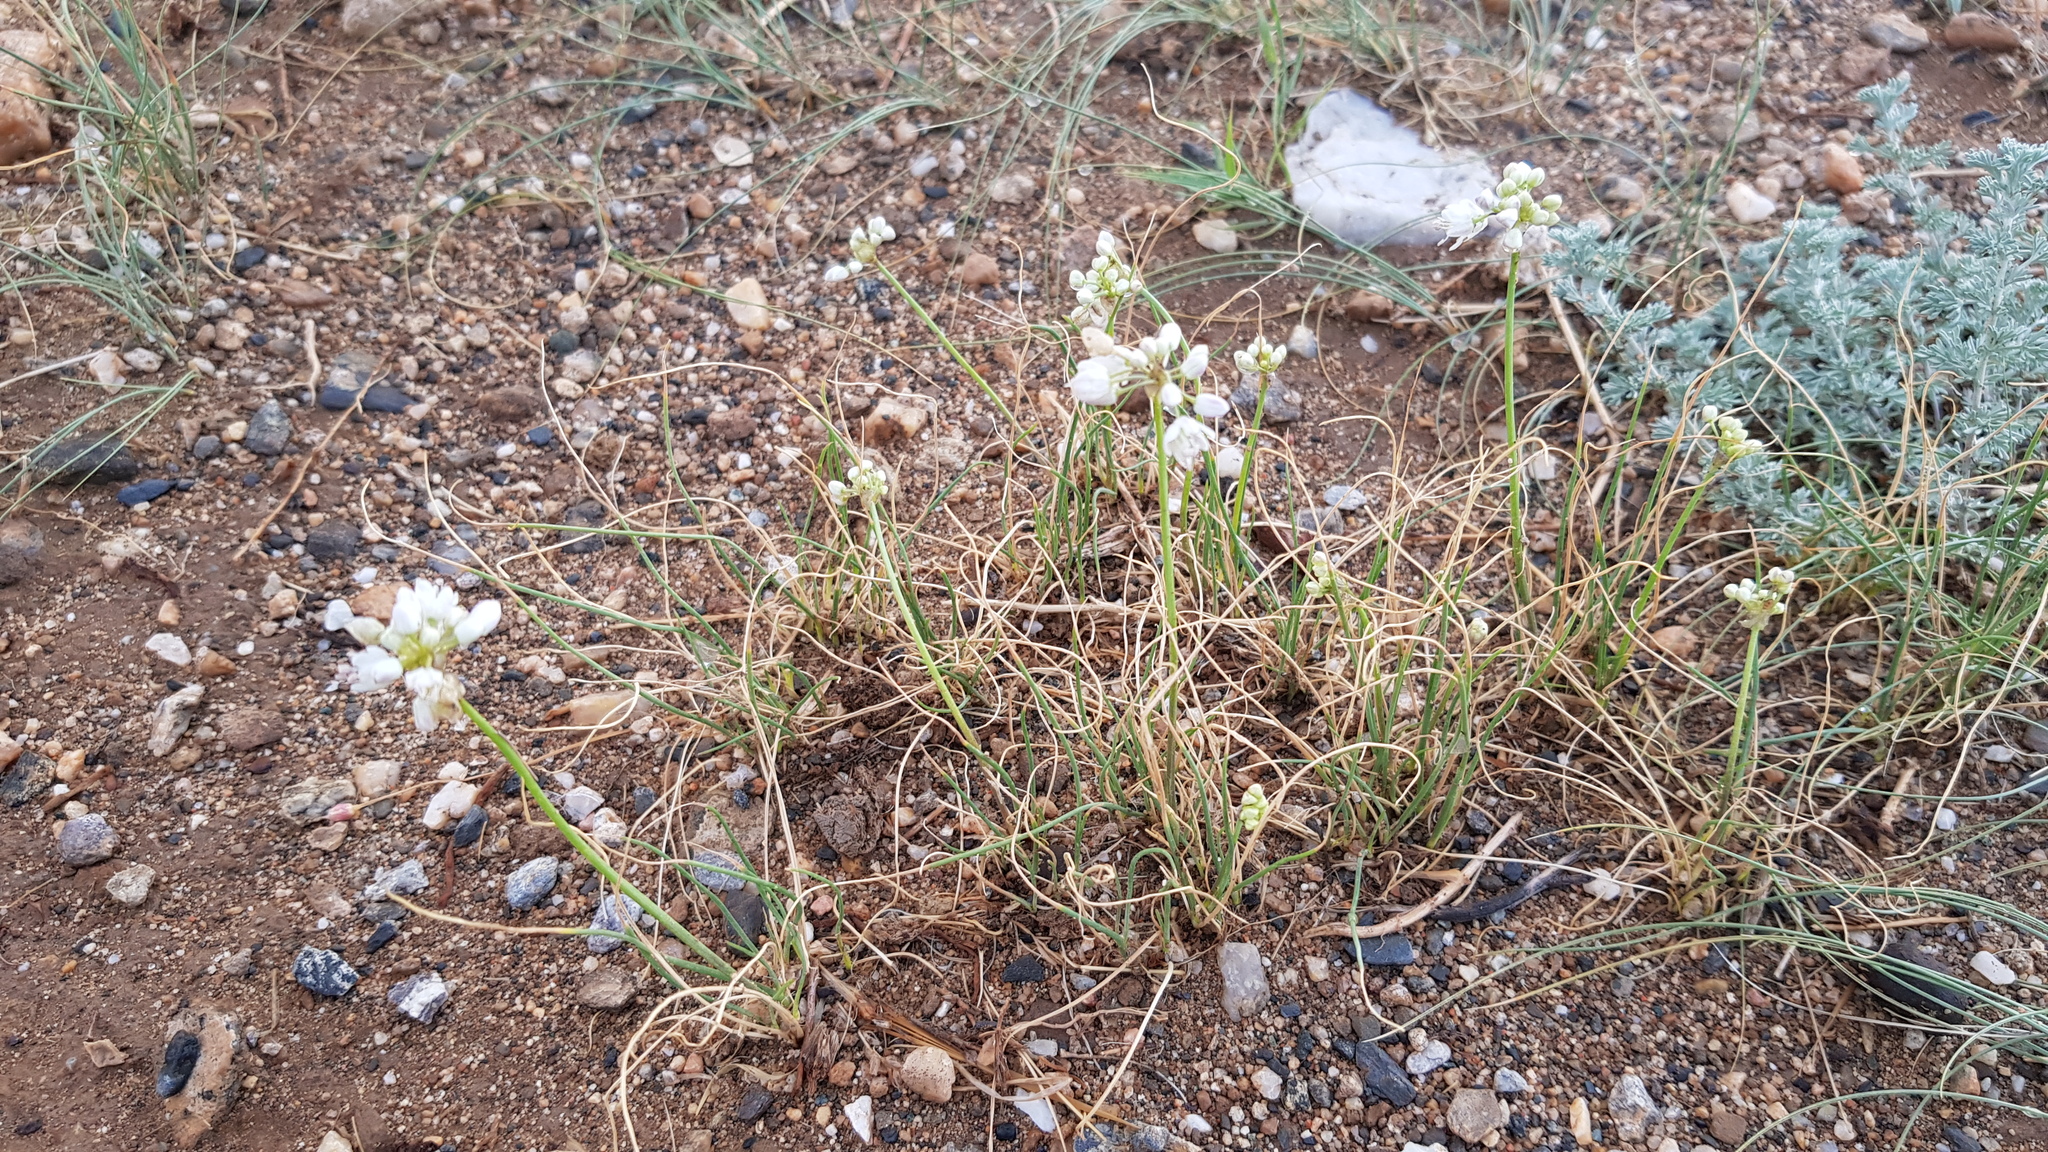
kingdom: Plantae
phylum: Tracheophyta
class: Liliopsida
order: Asparagales
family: Amaryllidaceae
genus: Allium
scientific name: Allium polyrhizum
